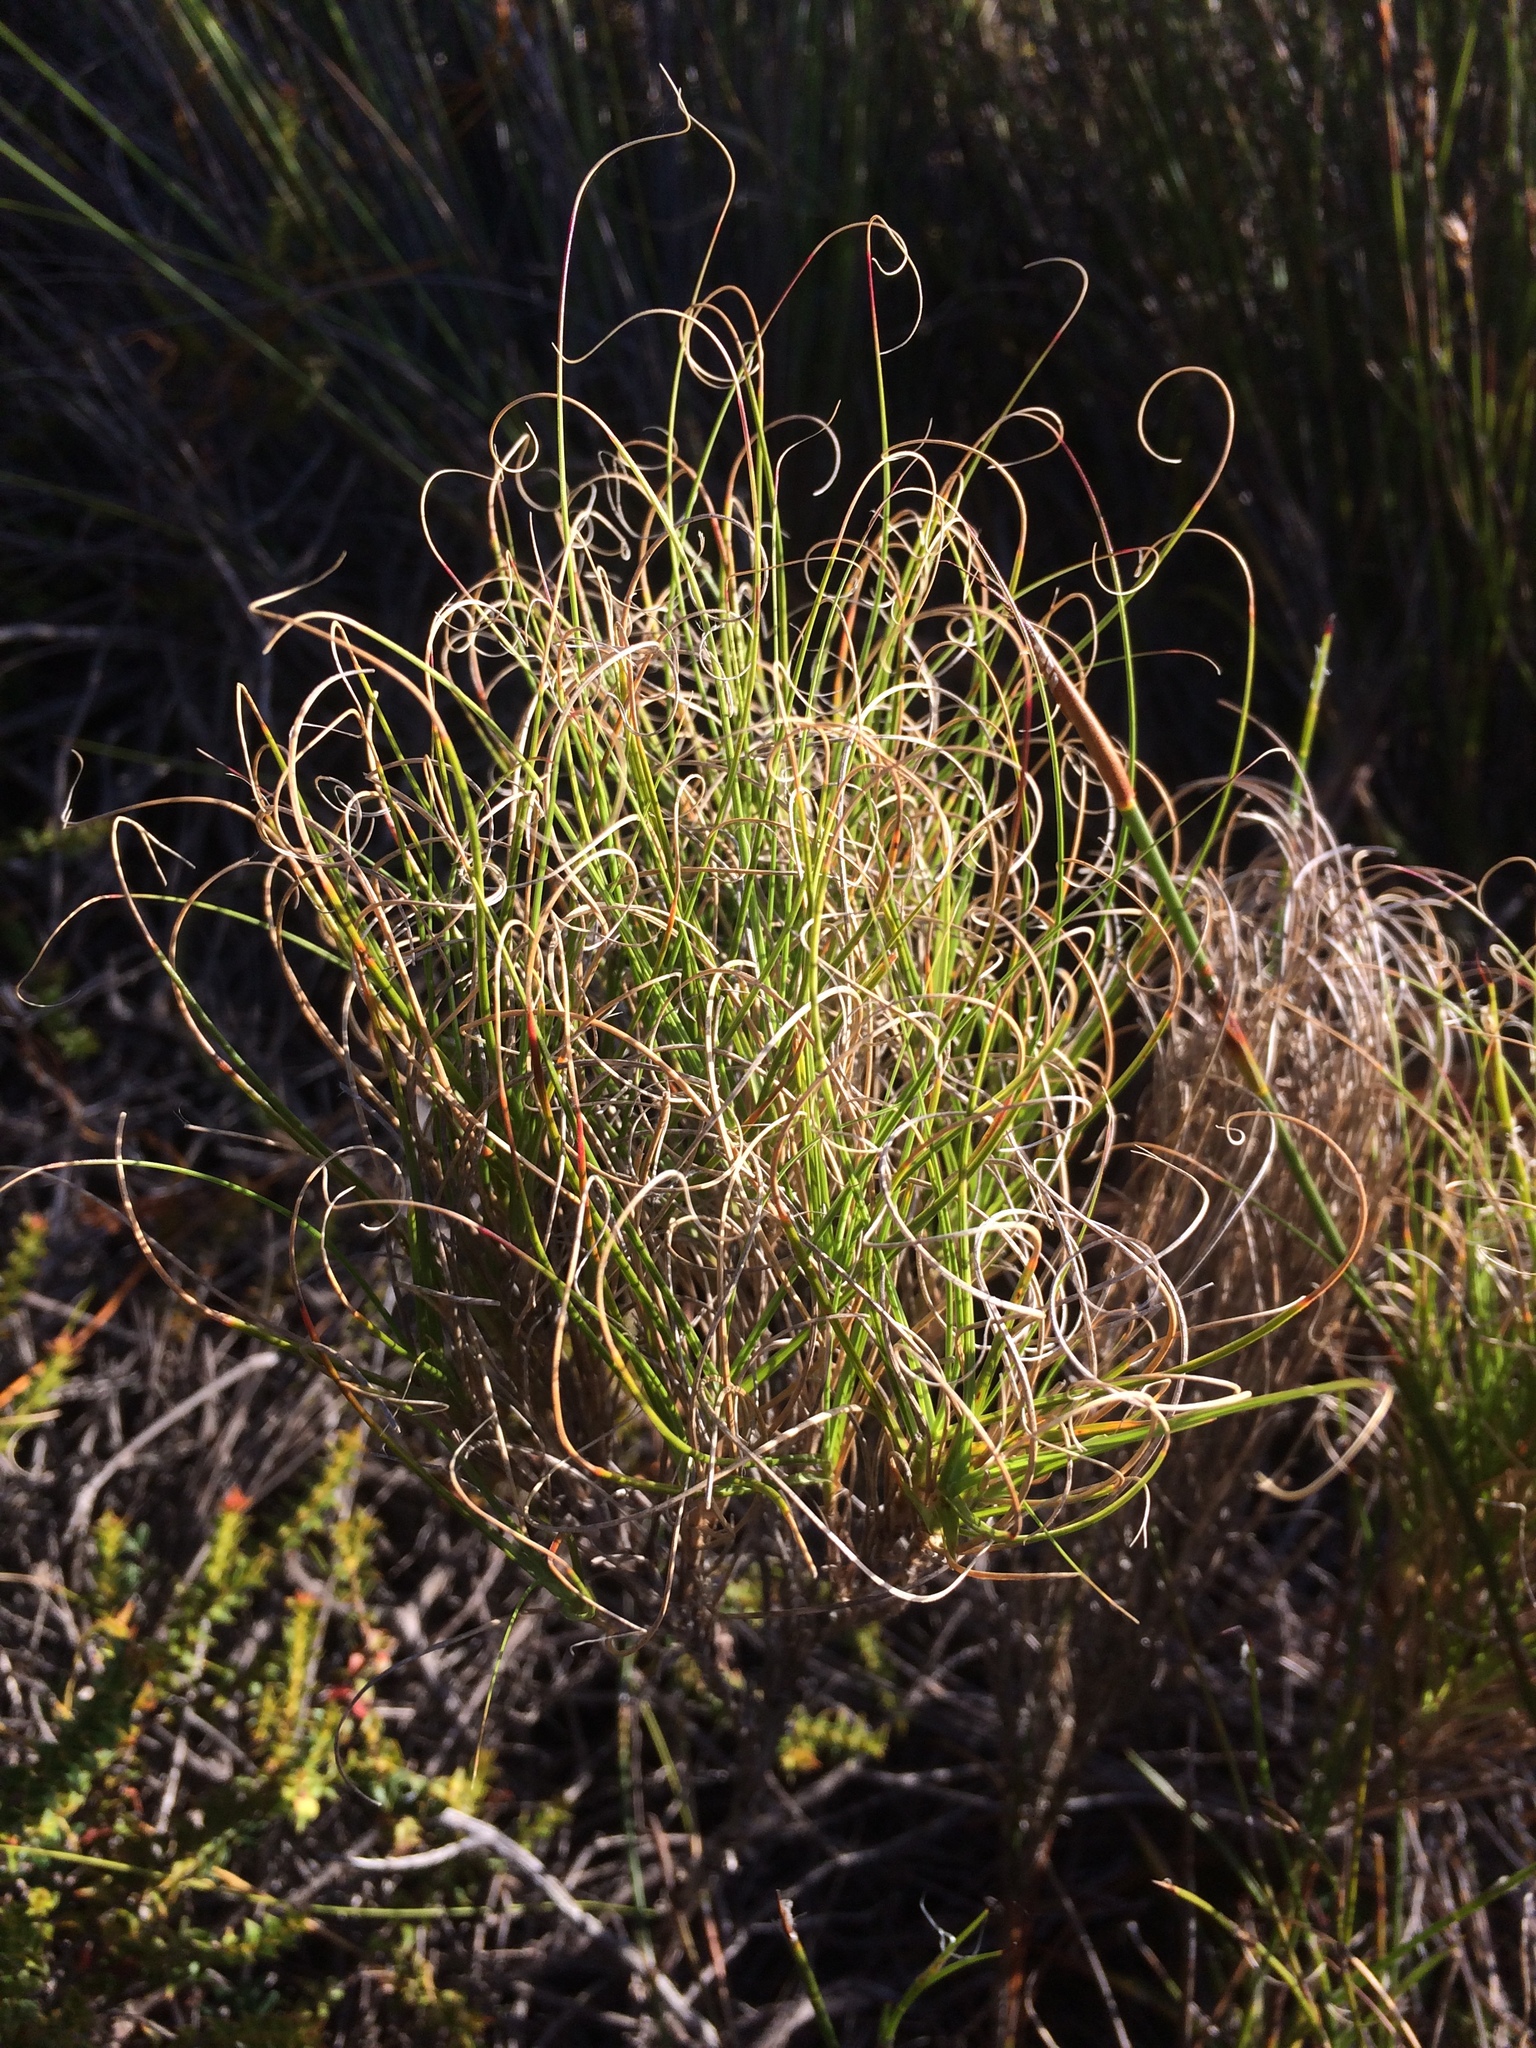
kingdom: Plantae
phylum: Tracheophyta
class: Liliopsida
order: Poales
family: Poaceae
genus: Pseudopentameris
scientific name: Pseudopentameris macrantha
